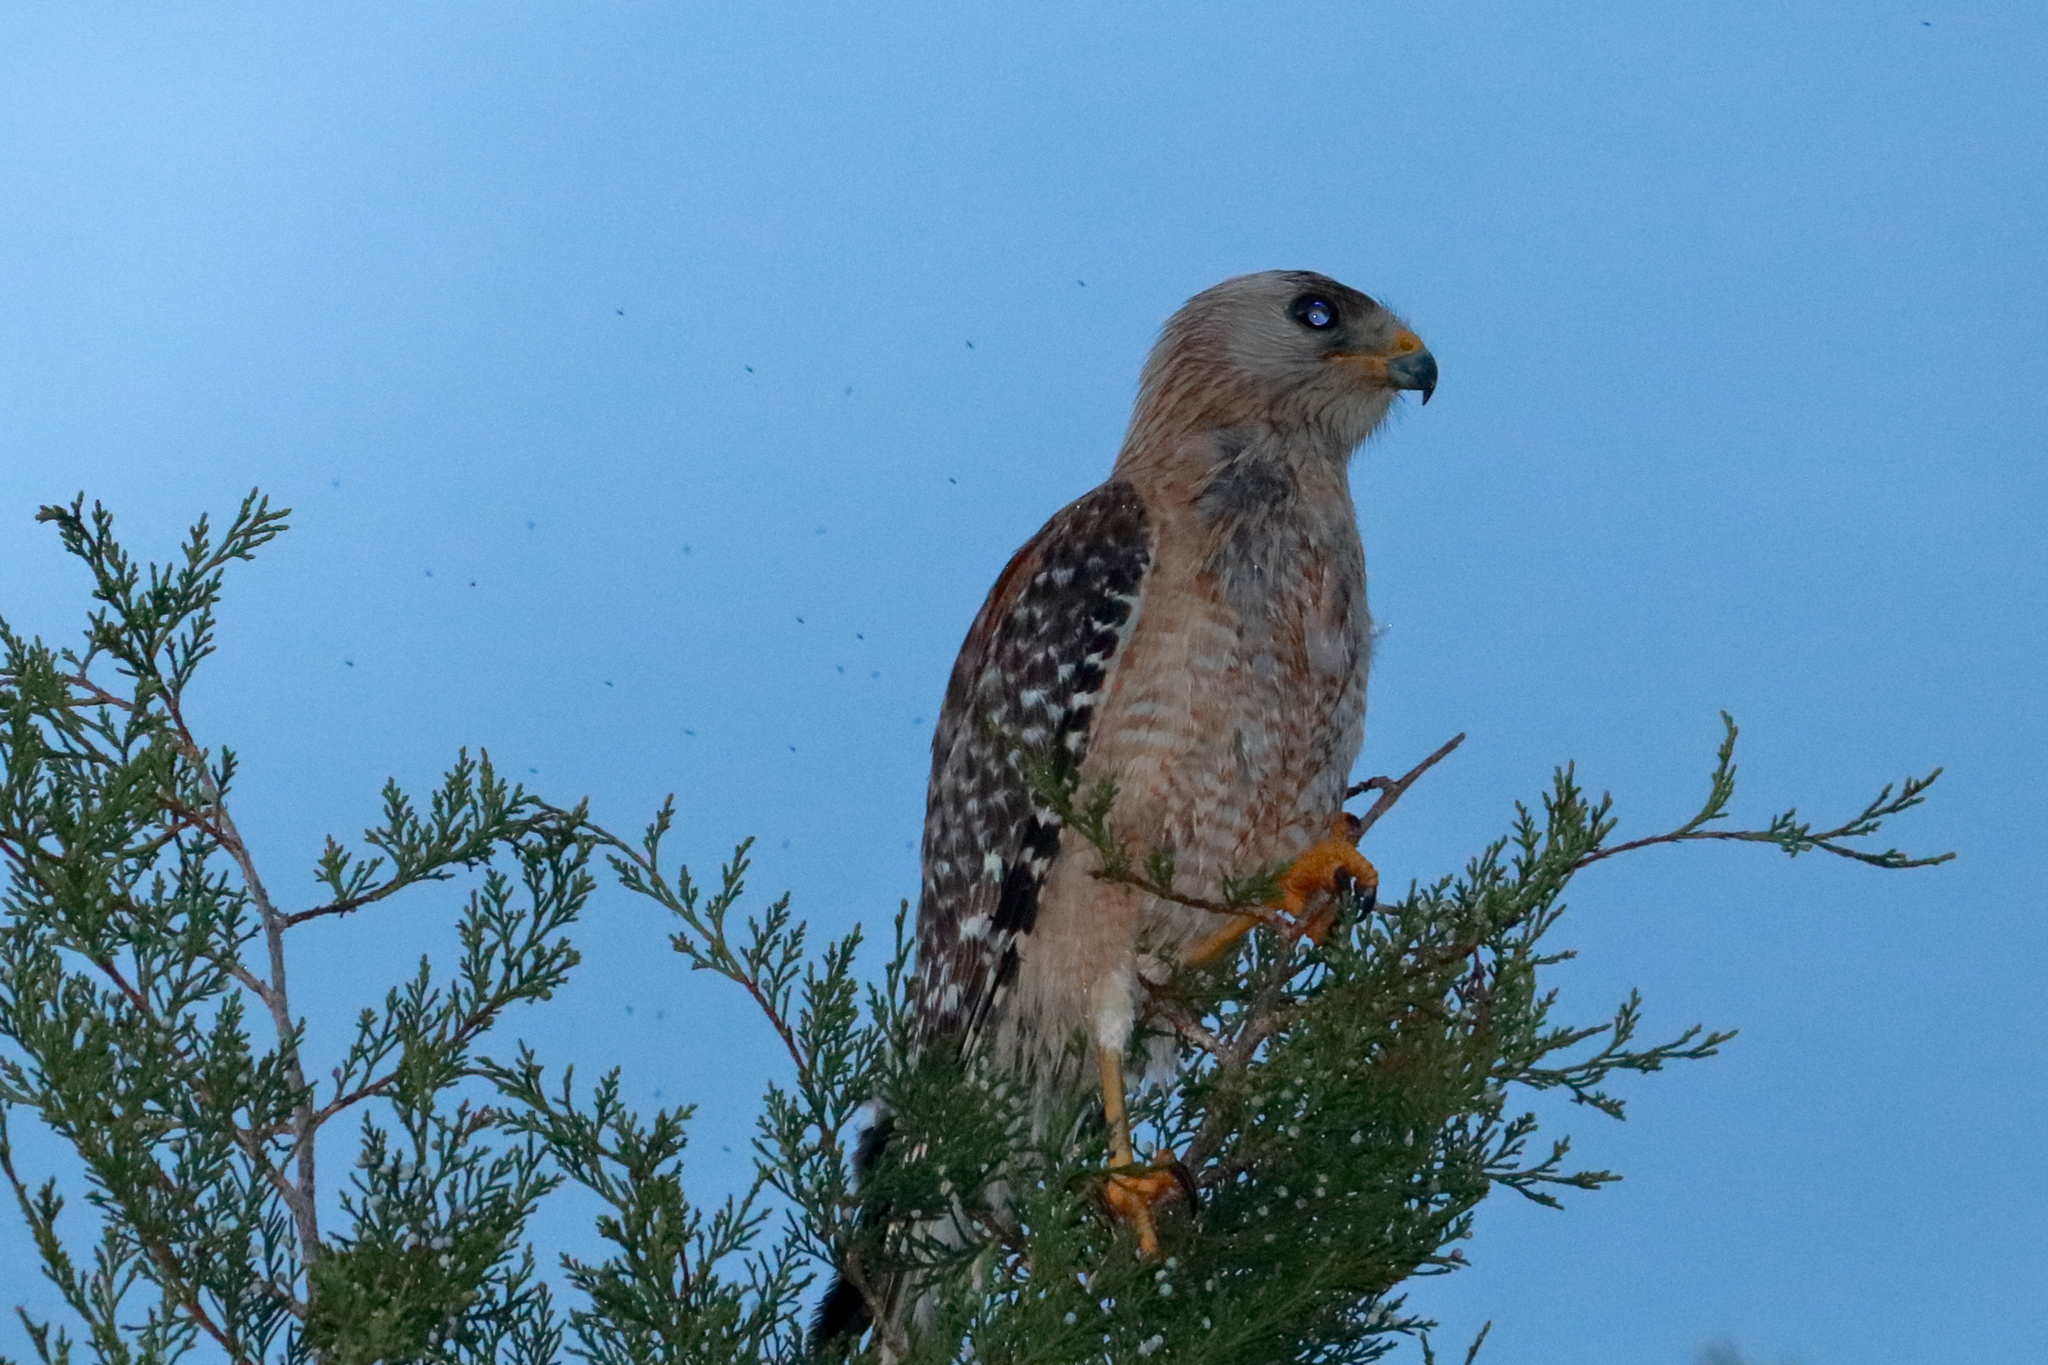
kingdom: Animalia
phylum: Chordata
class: Aves
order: Accipitriformes
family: Accipitridae
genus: Buteo
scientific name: Buteo lineatus
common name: Red-shouldered hawk
